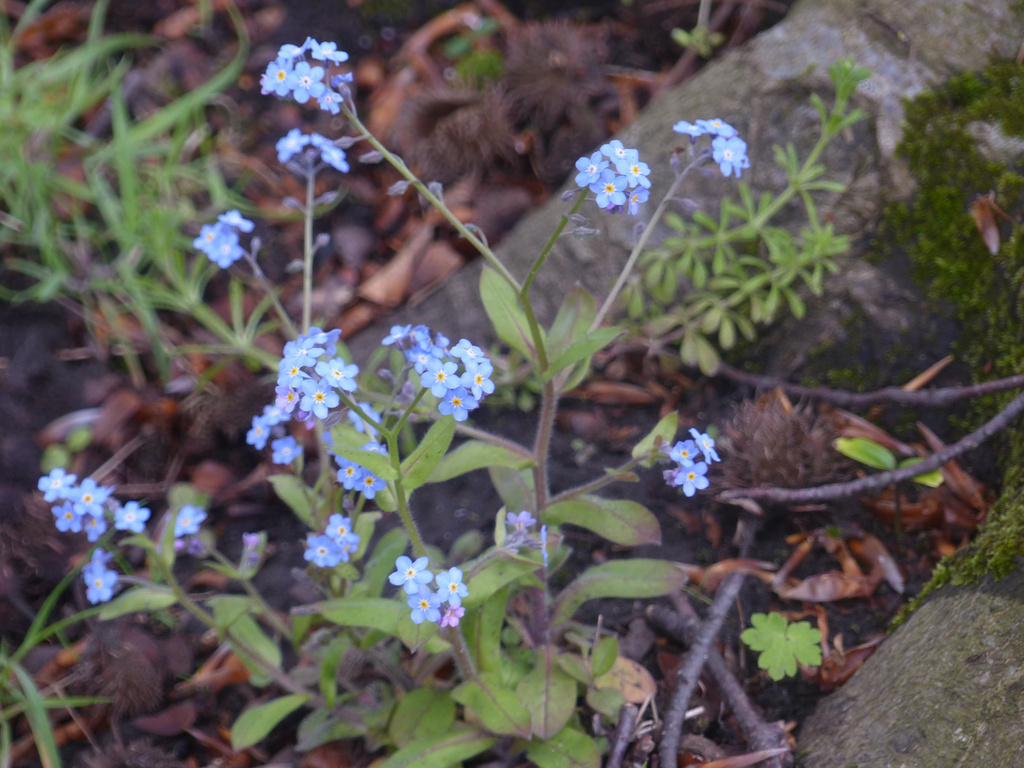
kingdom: Plantae
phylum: Tracheophyta
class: Magnoliopsida
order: Boraginales
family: Boraginaceae
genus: Myosotis
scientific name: Myosotis sylvatica
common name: Wood forget-me-not
